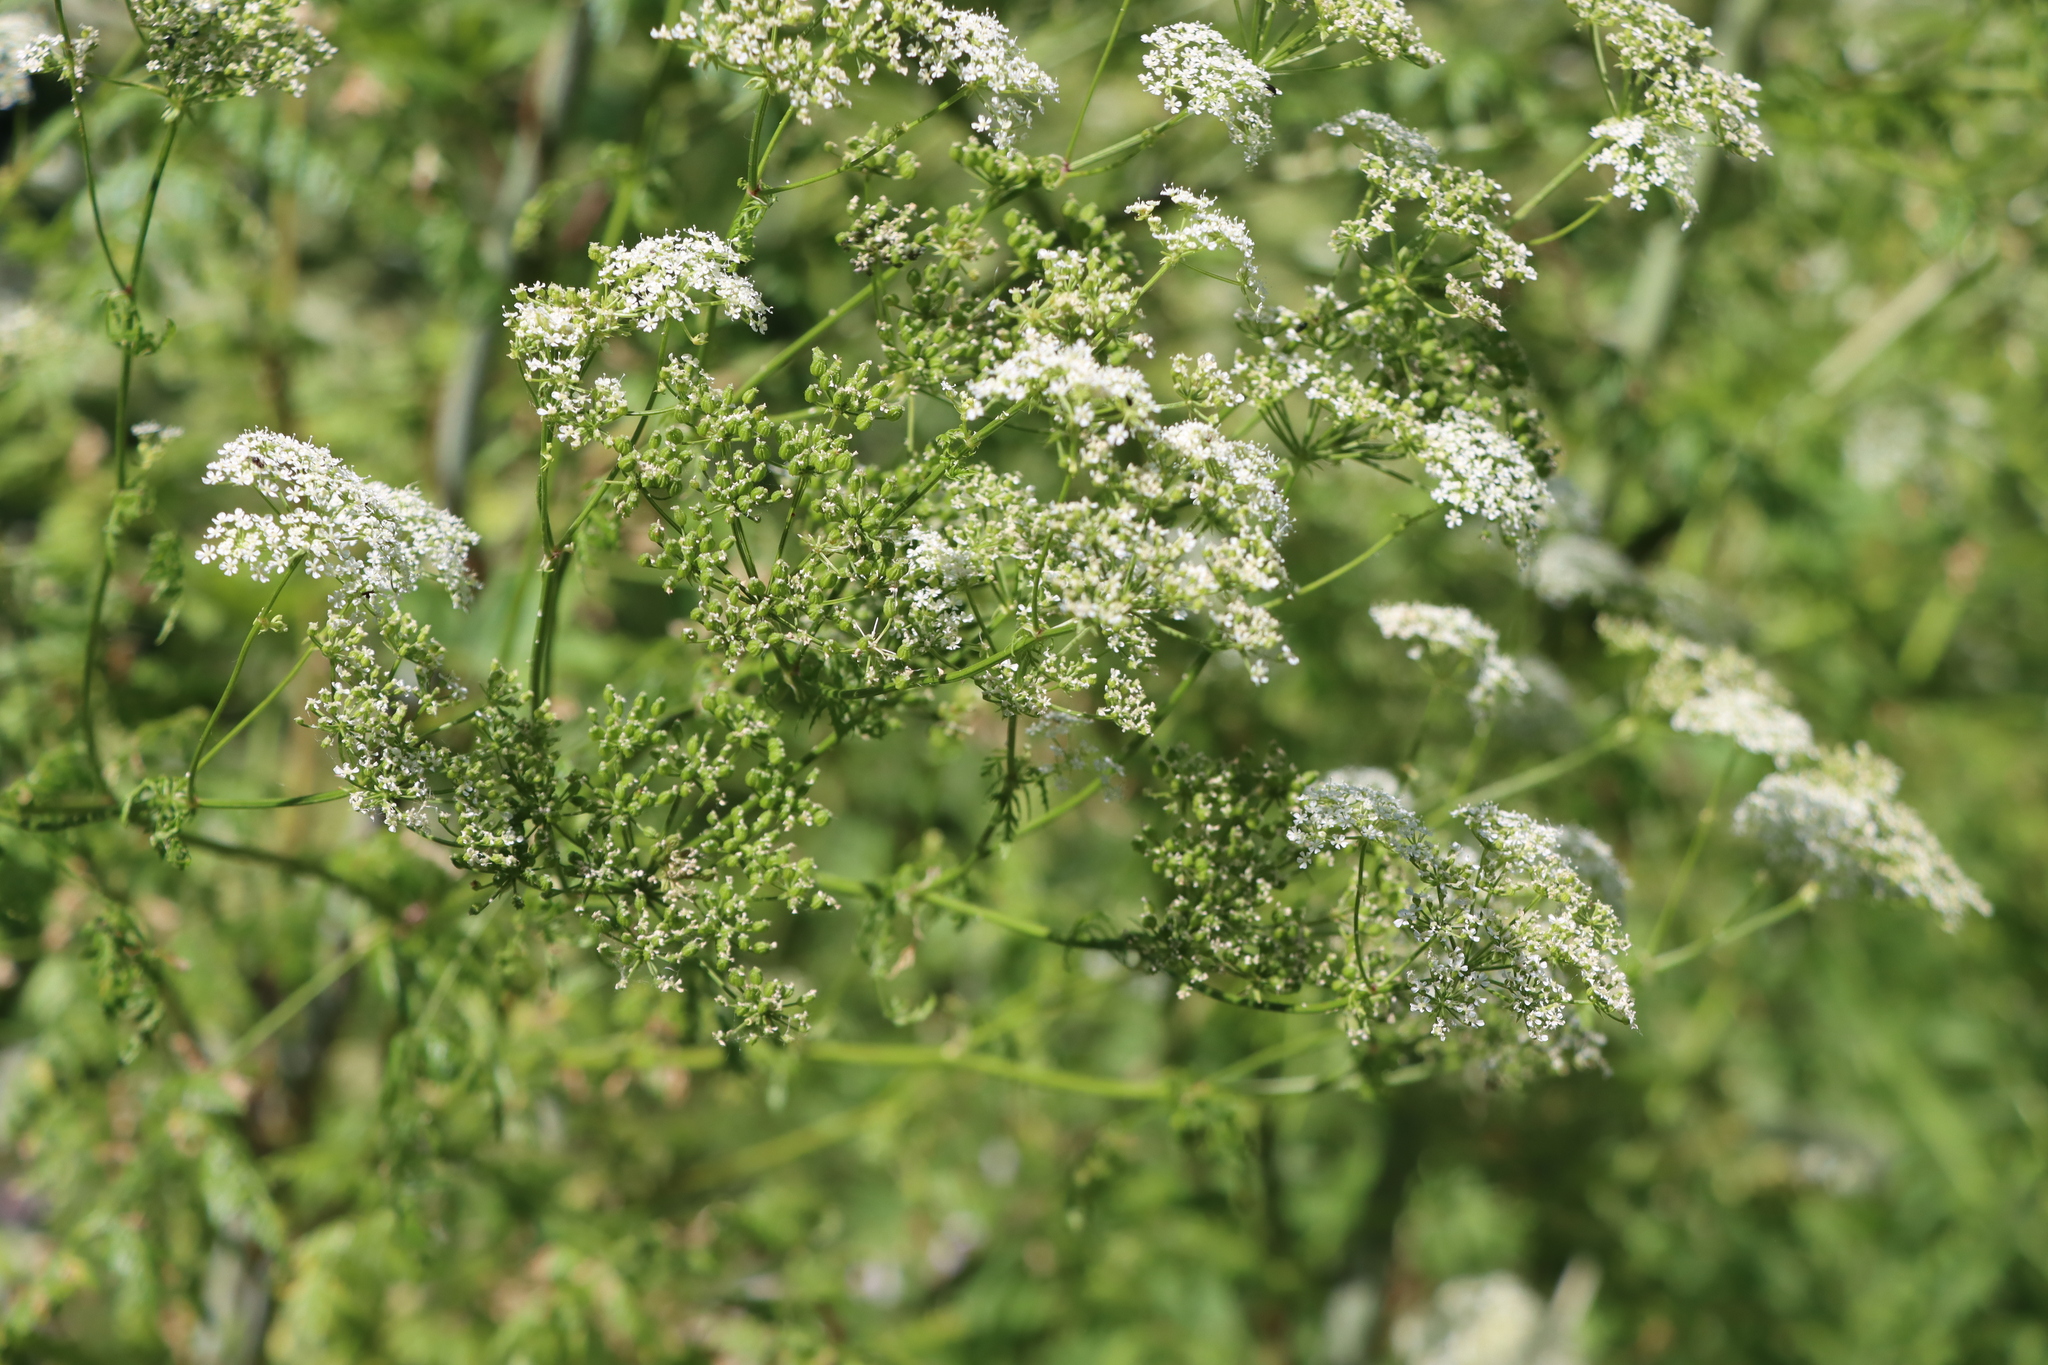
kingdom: Plantae
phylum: Tracheophyta
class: Magnoliopsida
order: Apiales
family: Apiaceae
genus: Conium
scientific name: Conium maculatum
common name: Hemlock
